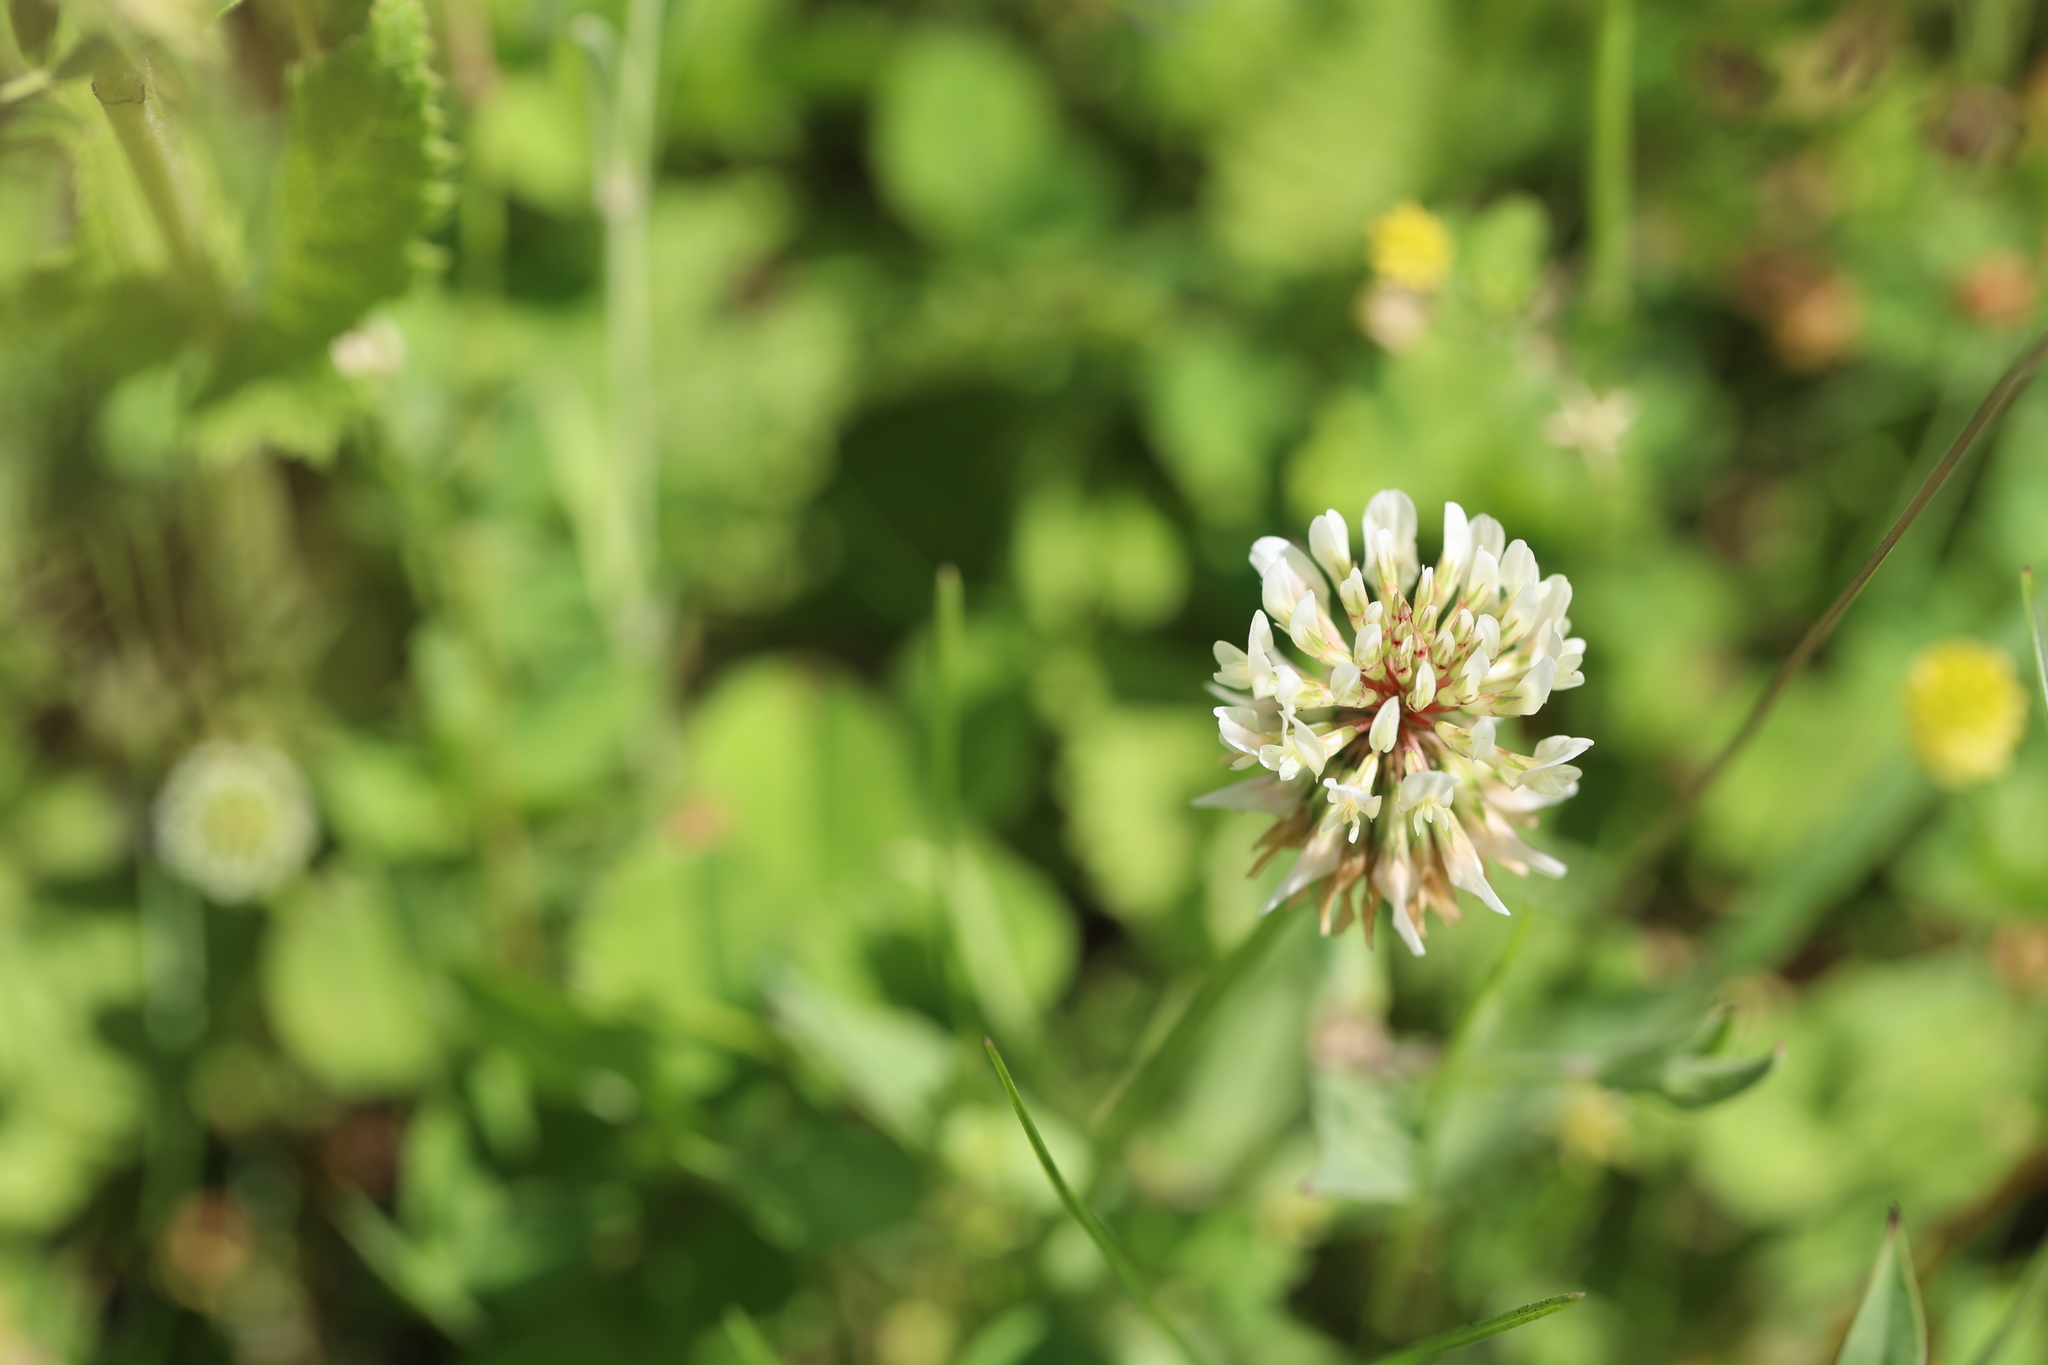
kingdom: Plantae
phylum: Tracheophyta
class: Magnoliopsida
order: Fabales
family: Fabaceae
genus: Trifolium
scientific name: Trifolium repens
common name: White clover
